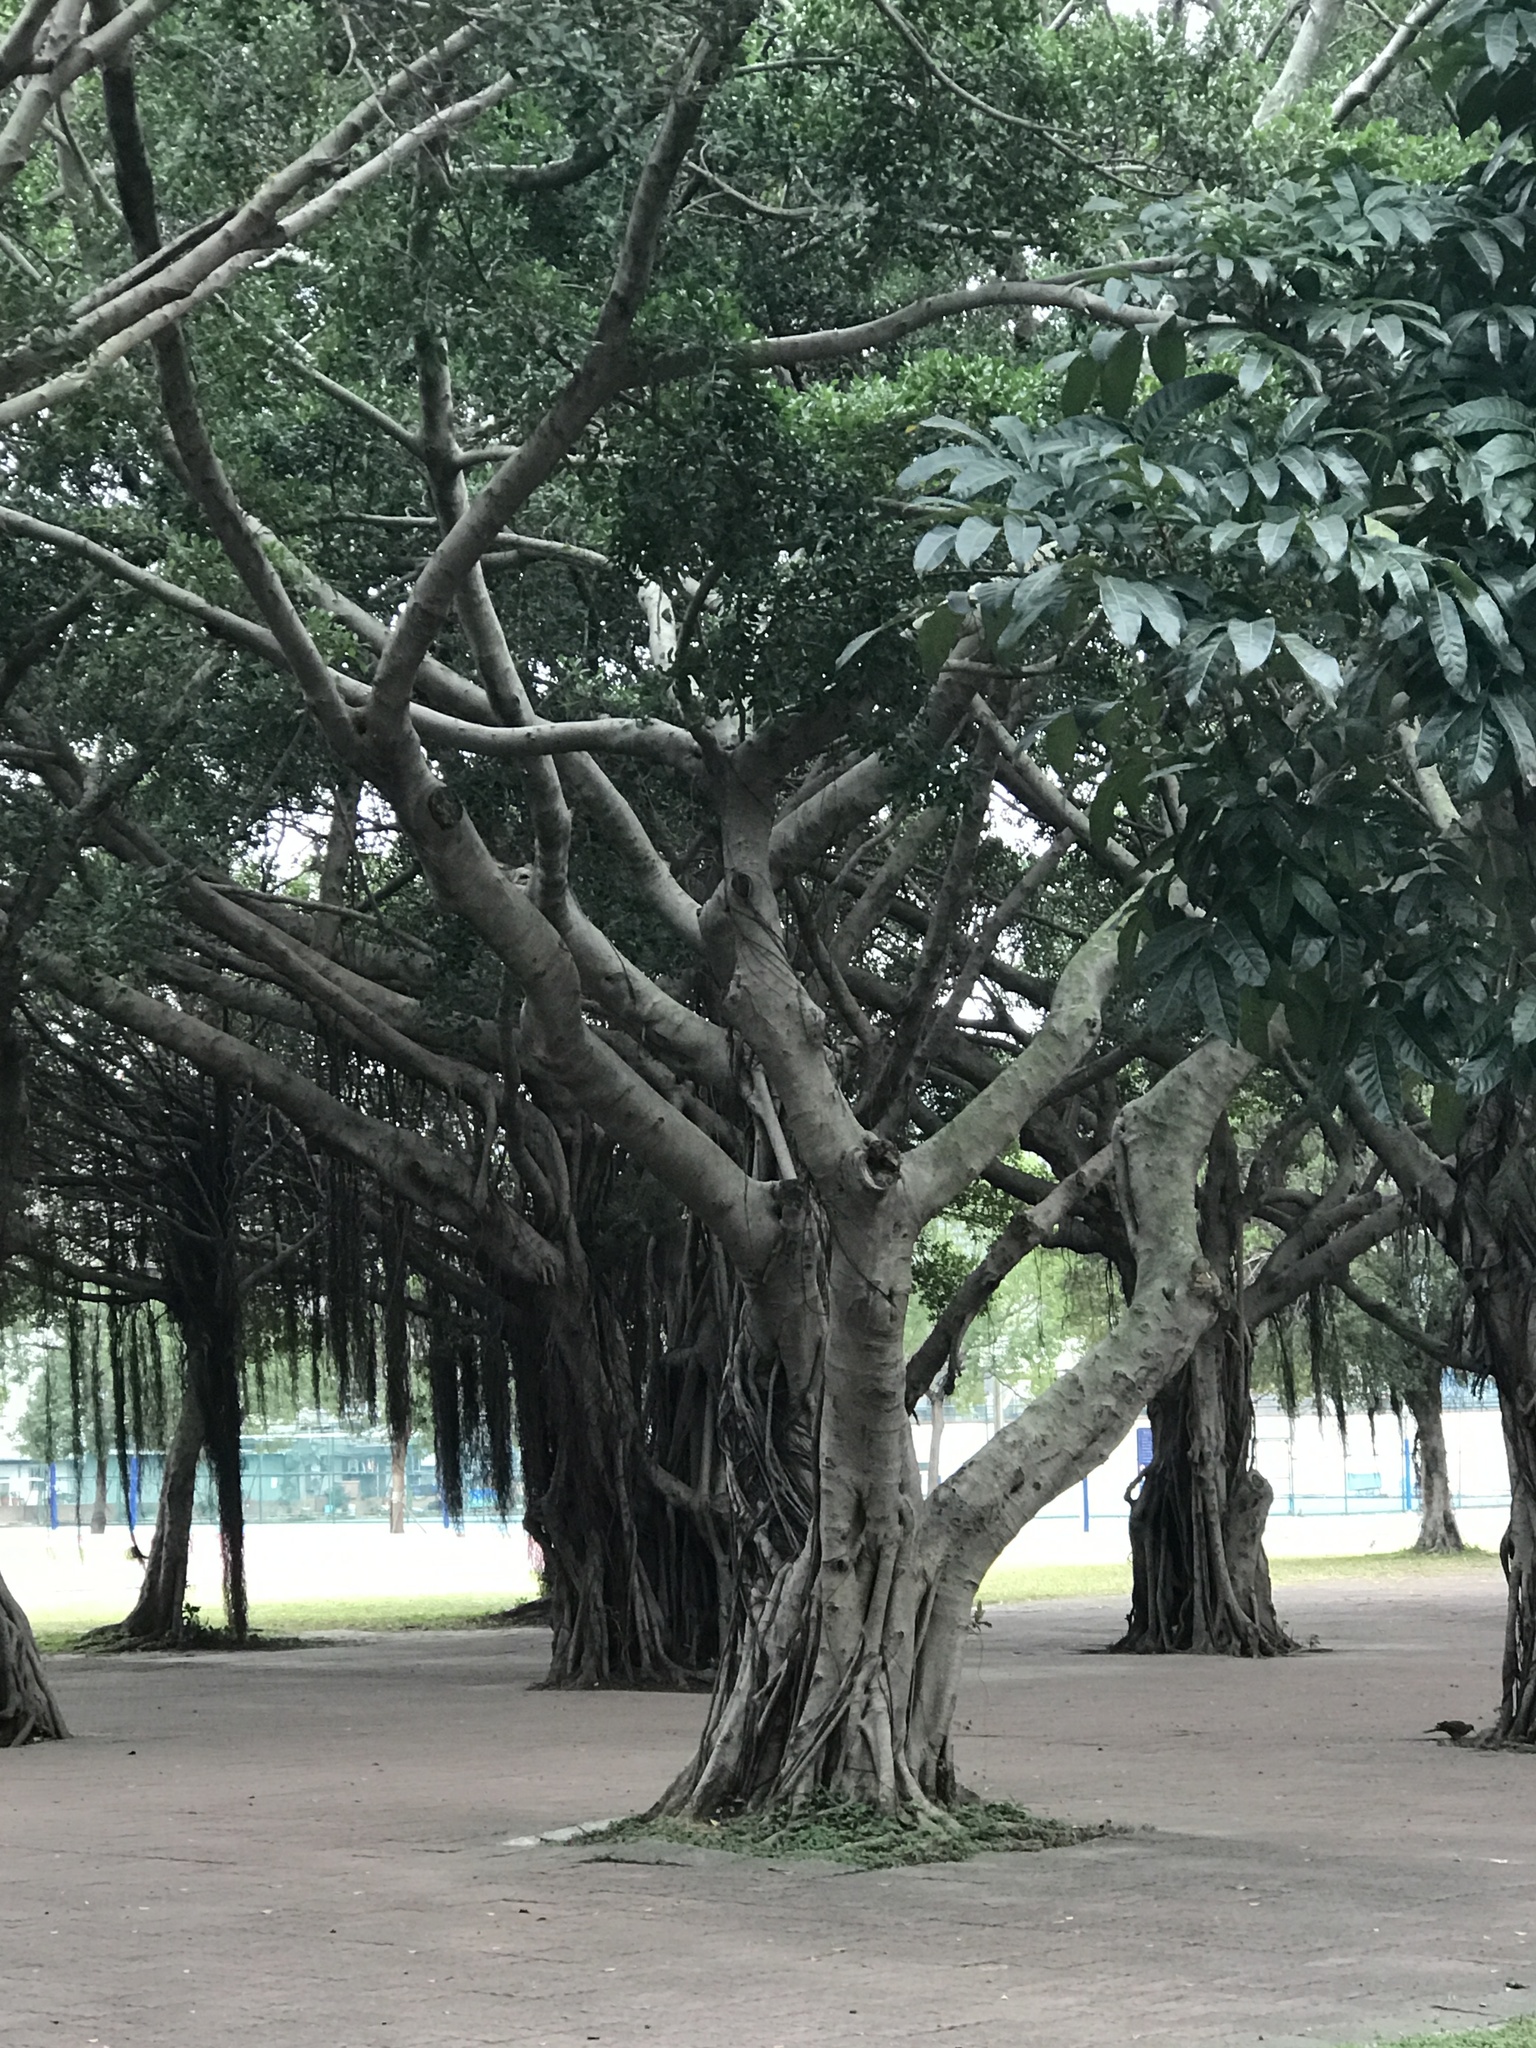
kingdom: Plantae
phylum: Tracheophyta
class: Magnoliopsida
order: Rosales
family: Moraceae
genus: Ficus
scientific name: Ficus microcarpa
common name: Chinese banyan
